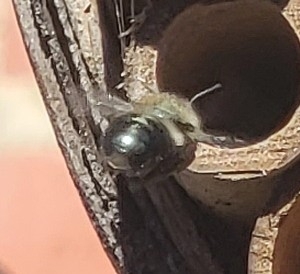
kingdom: Animalia
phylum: Arthropoda
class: Insecta
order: Hymenoptera
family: Megachilidae
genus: Osmia
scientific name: Osmia bucephala
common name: Bufflehead mason bee
